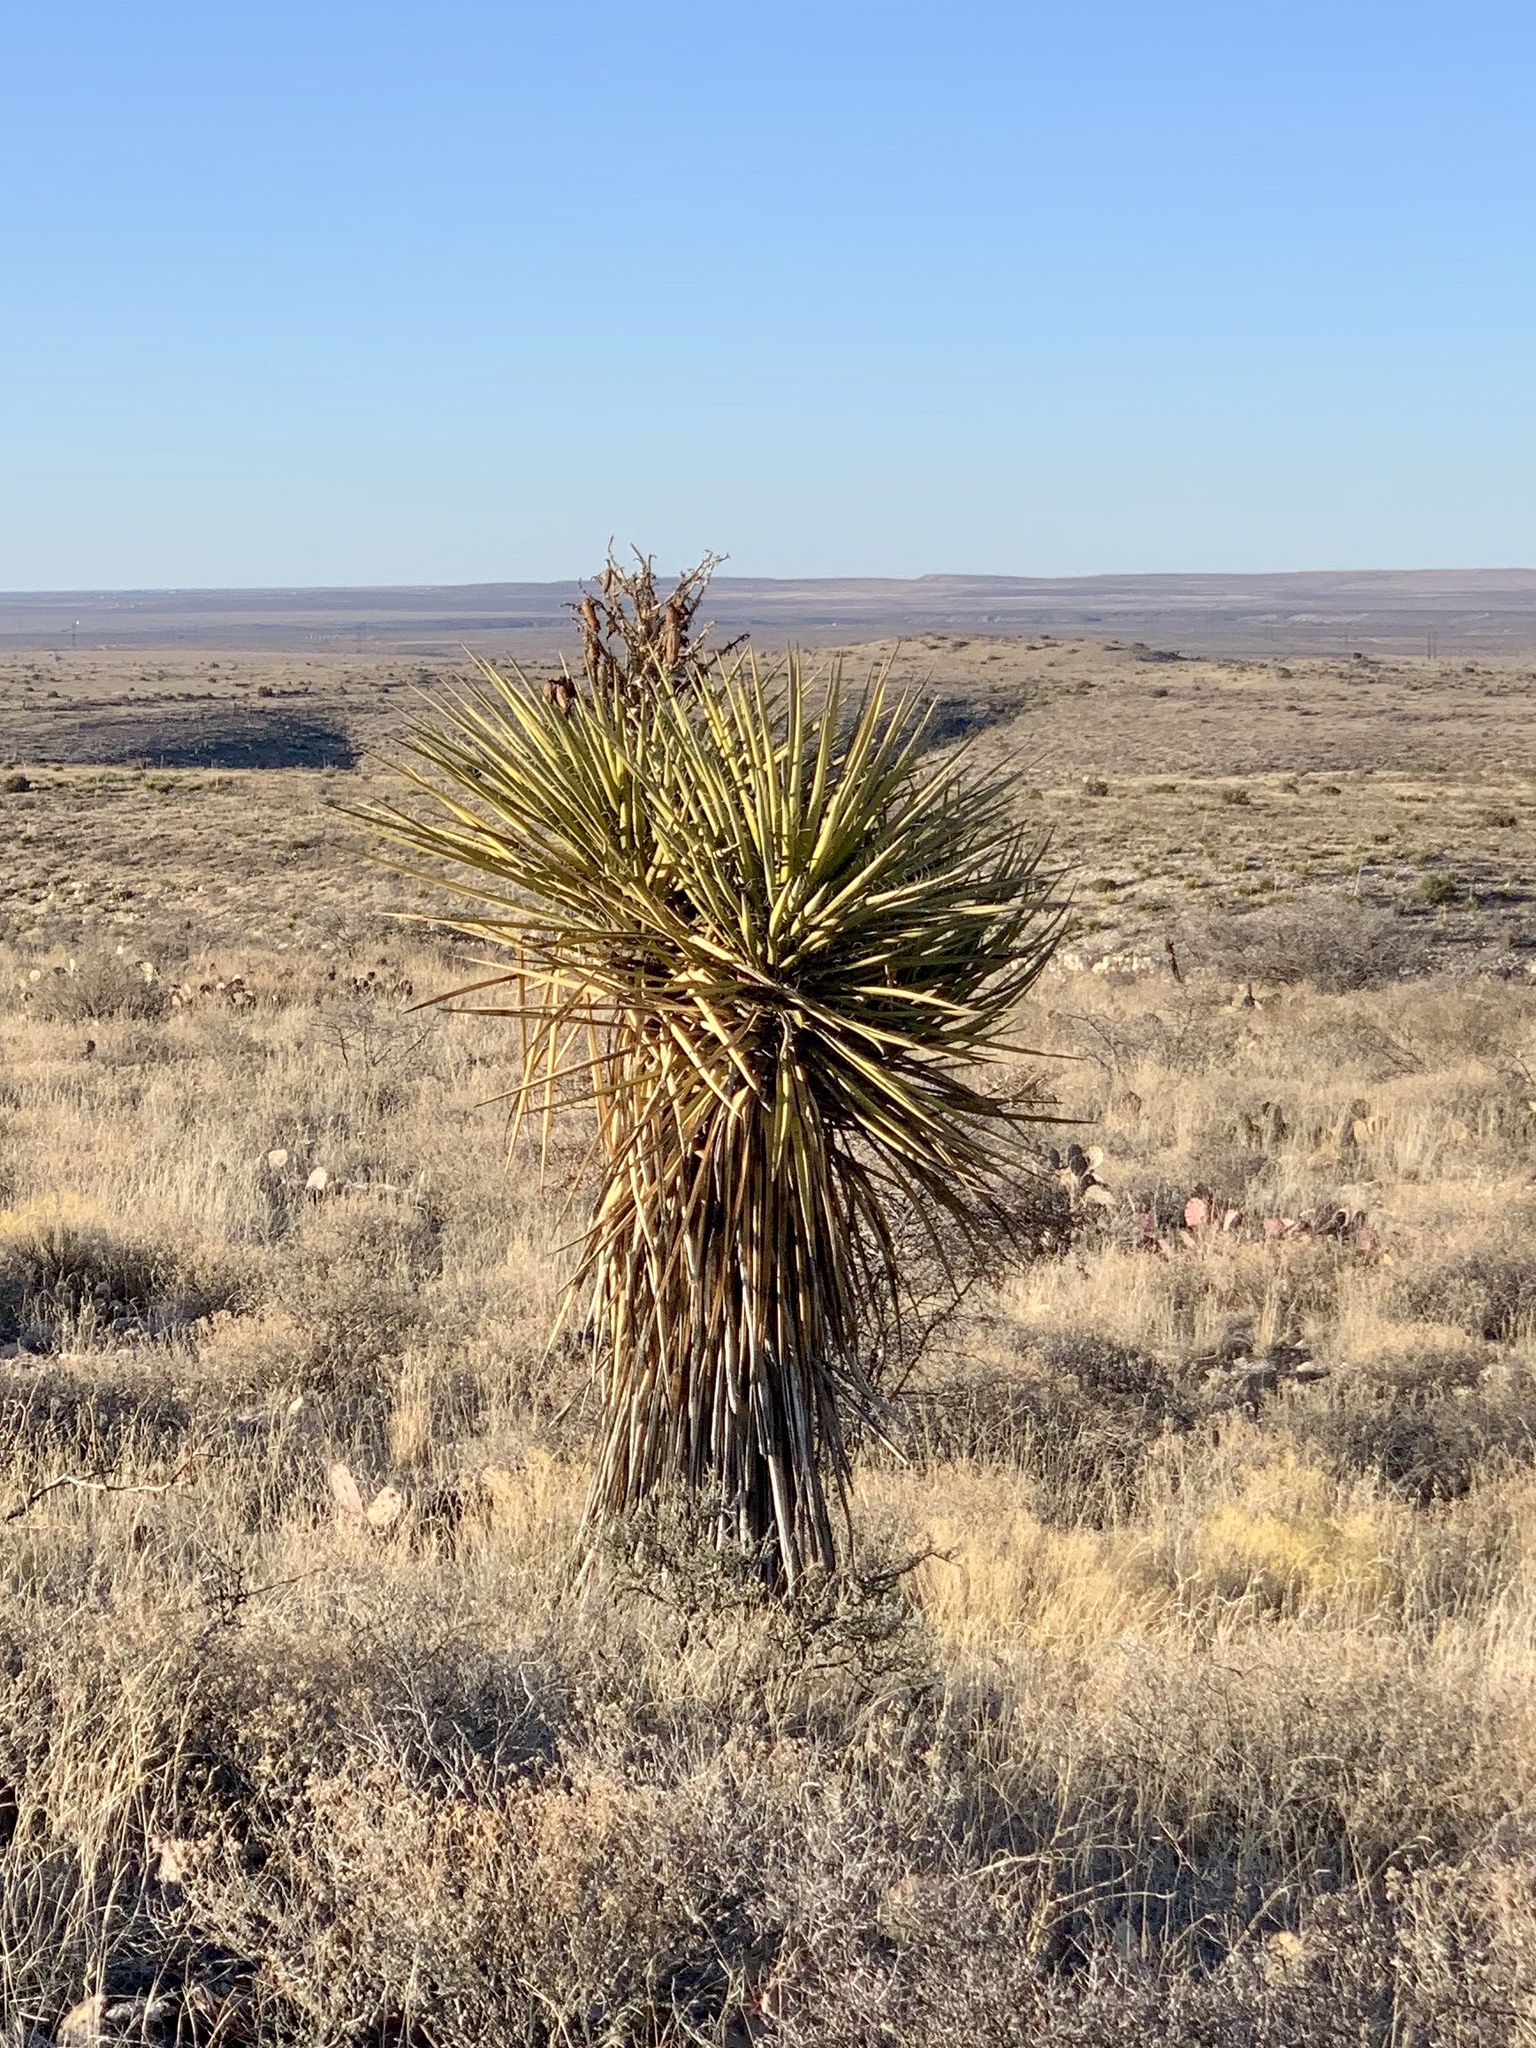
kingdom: Plantae
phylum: Tracheophyta
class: Liliopsida
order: Asparagales
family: Asparagaceae
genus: Yucca
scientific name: Yucca treculiana
